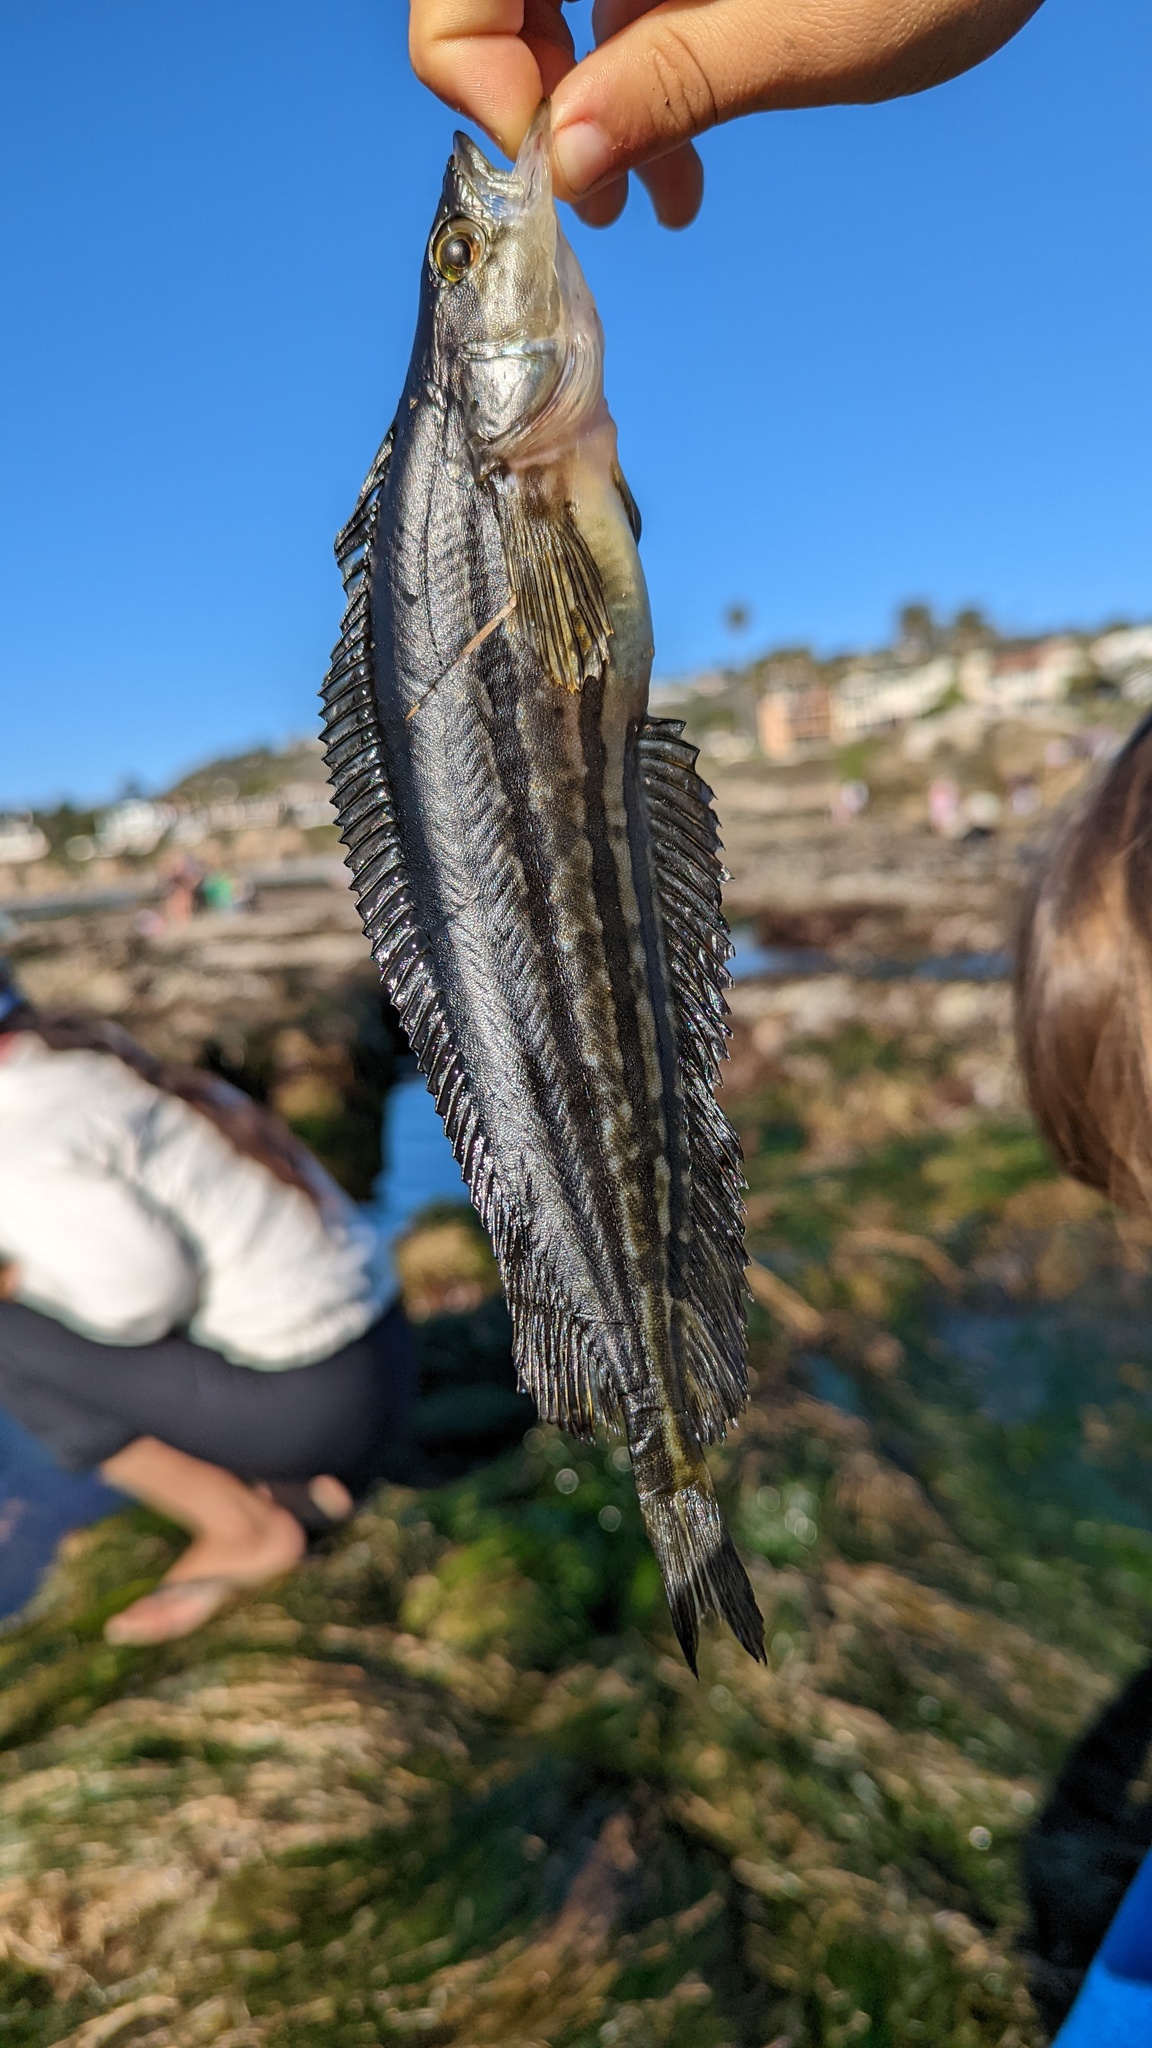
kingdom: Animalia
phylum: Chordata
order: Perciformes
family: Clinidae
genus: Heterostichus
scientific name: Heterostichus rostratus
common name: Giant kelpfish
